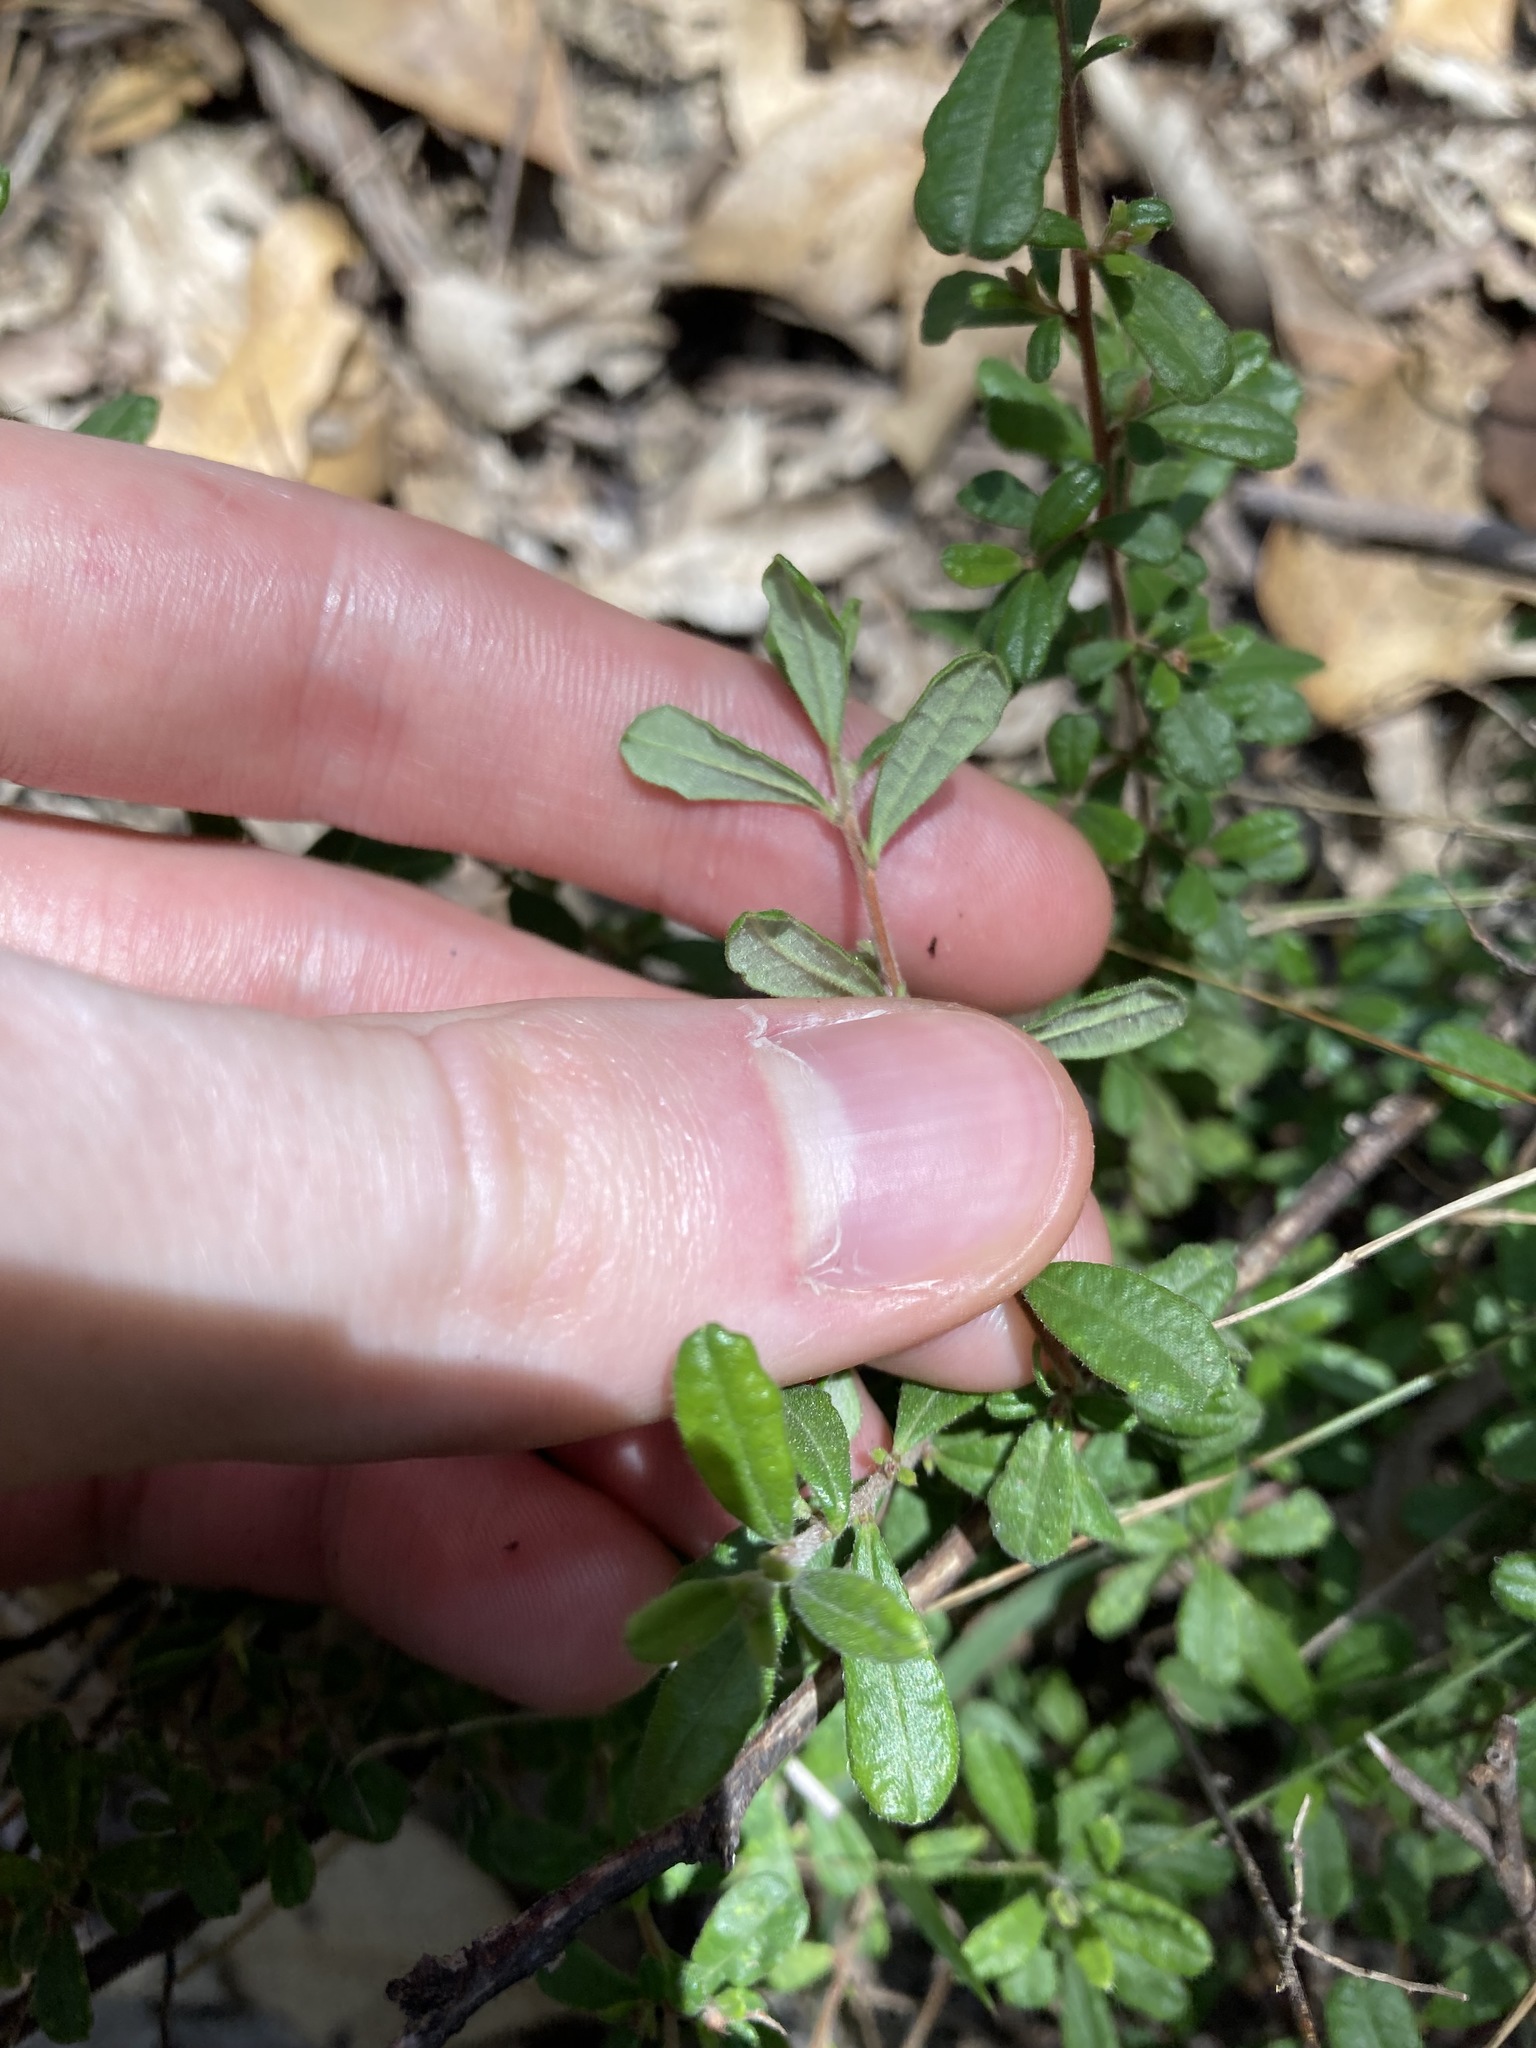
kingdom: Plantae
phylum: Tracheophyta
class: Magnoliopsida
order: Dilleniales
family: Dilleniaceae
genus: Hibbertia
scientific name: Hibbertia aspera
